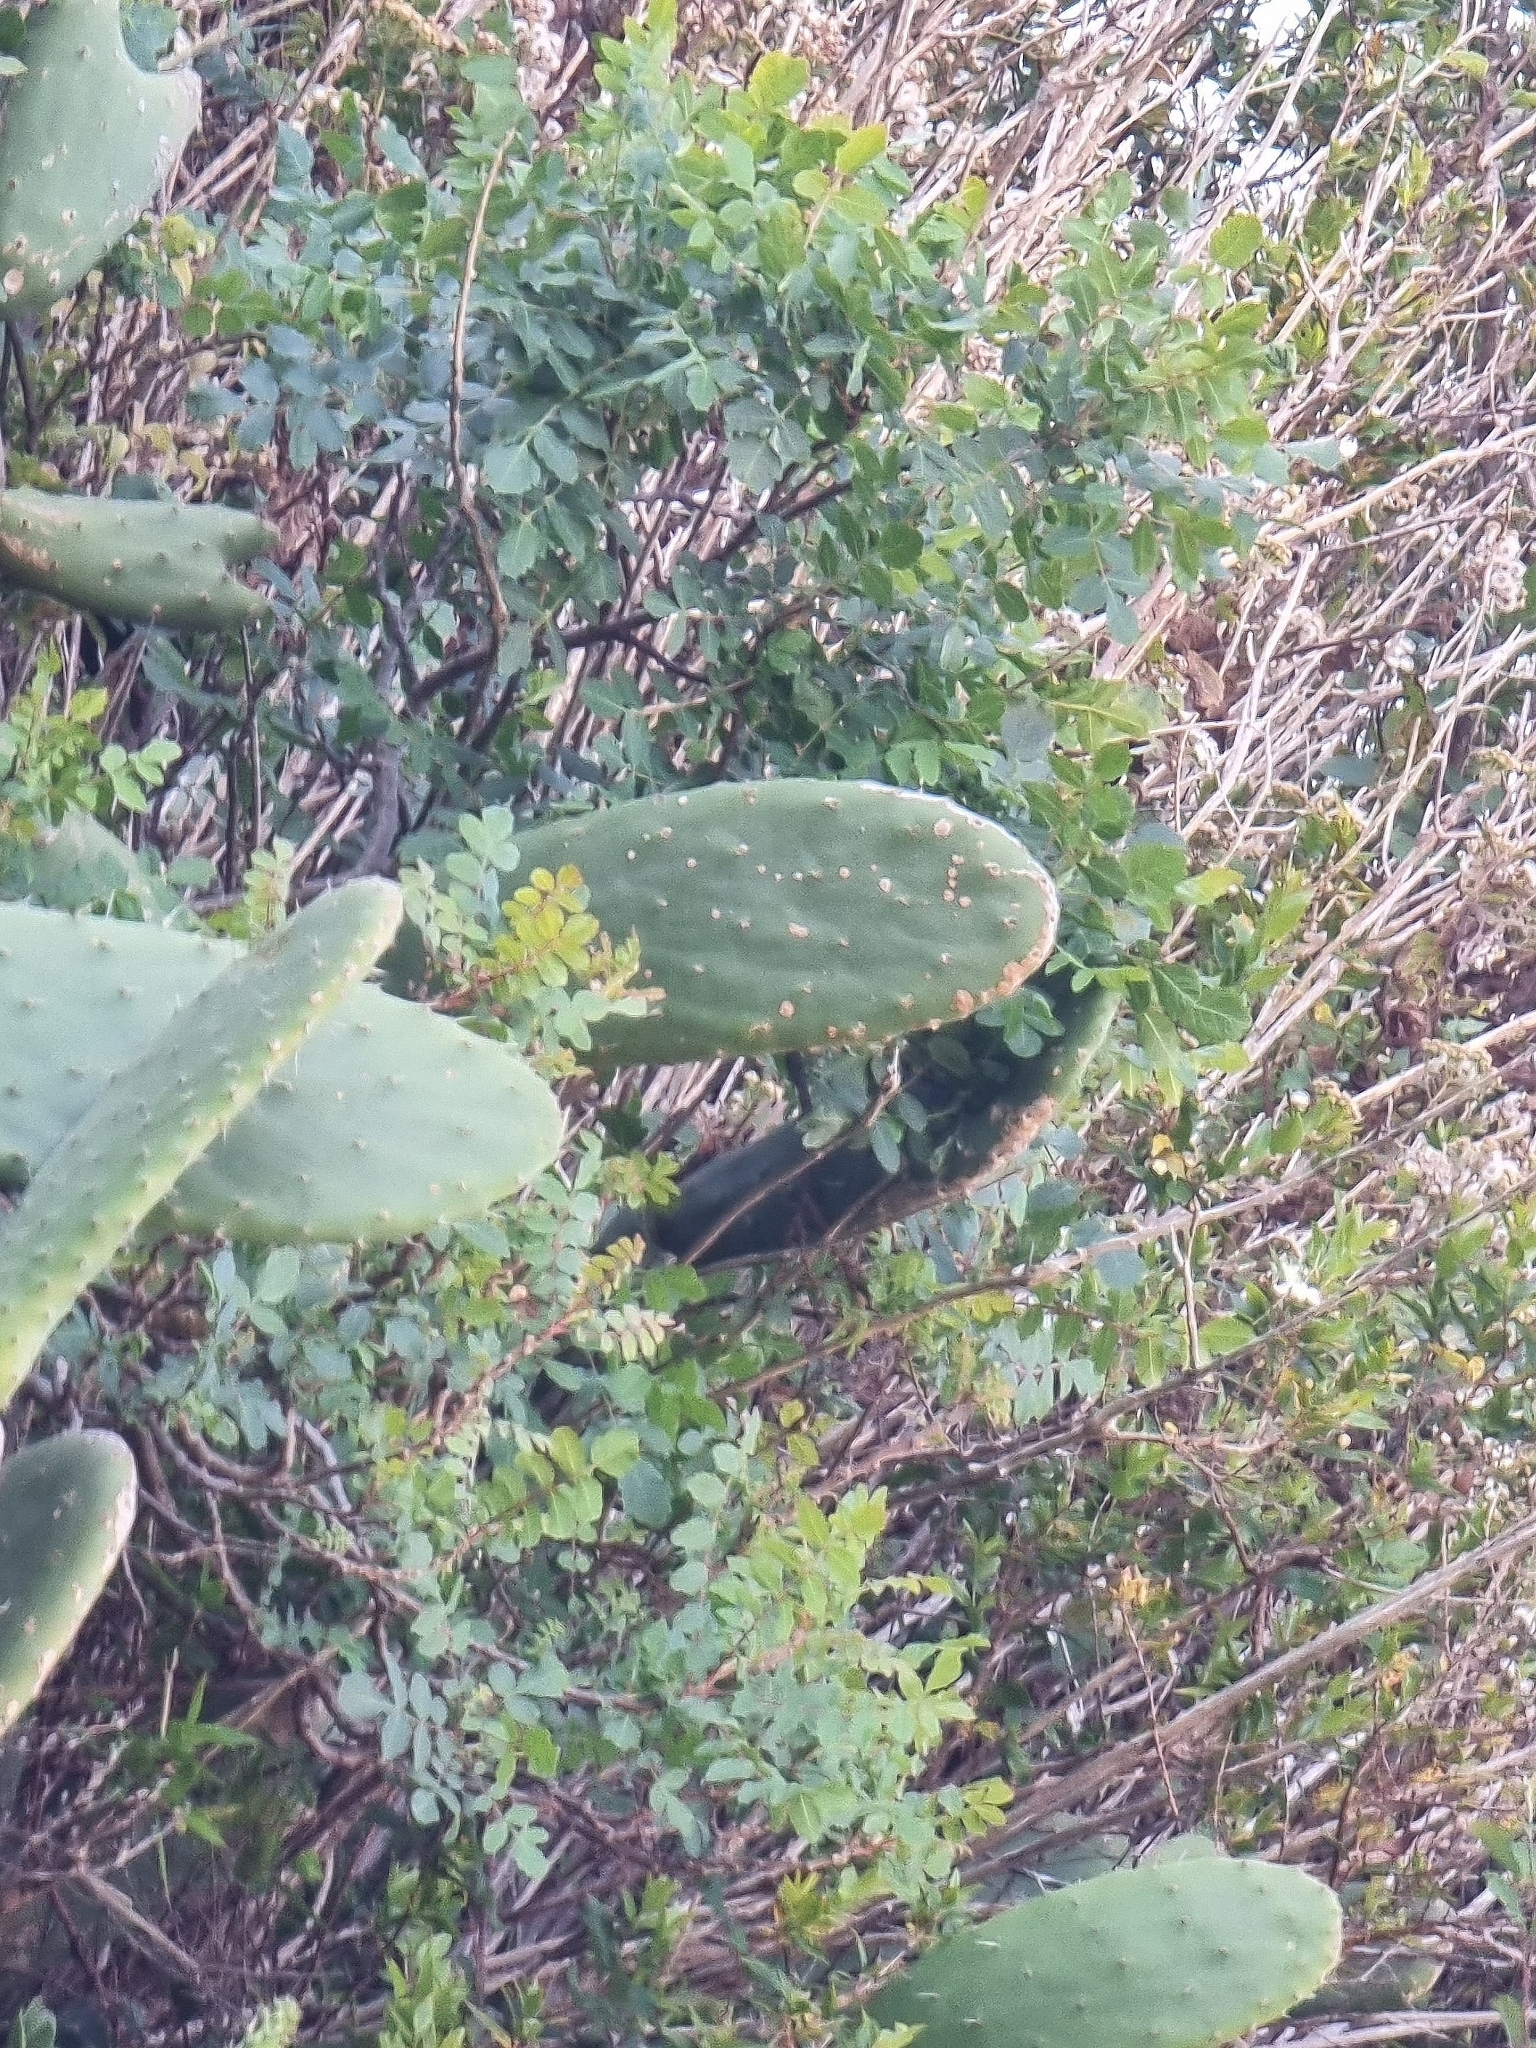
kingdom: Plantae
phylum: Tracheophyta
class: Magnoliopsida
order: Sapindales
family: Anacardiaceae
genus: Rhus
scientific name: Rhus coriaria
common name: Tanner's sumach
